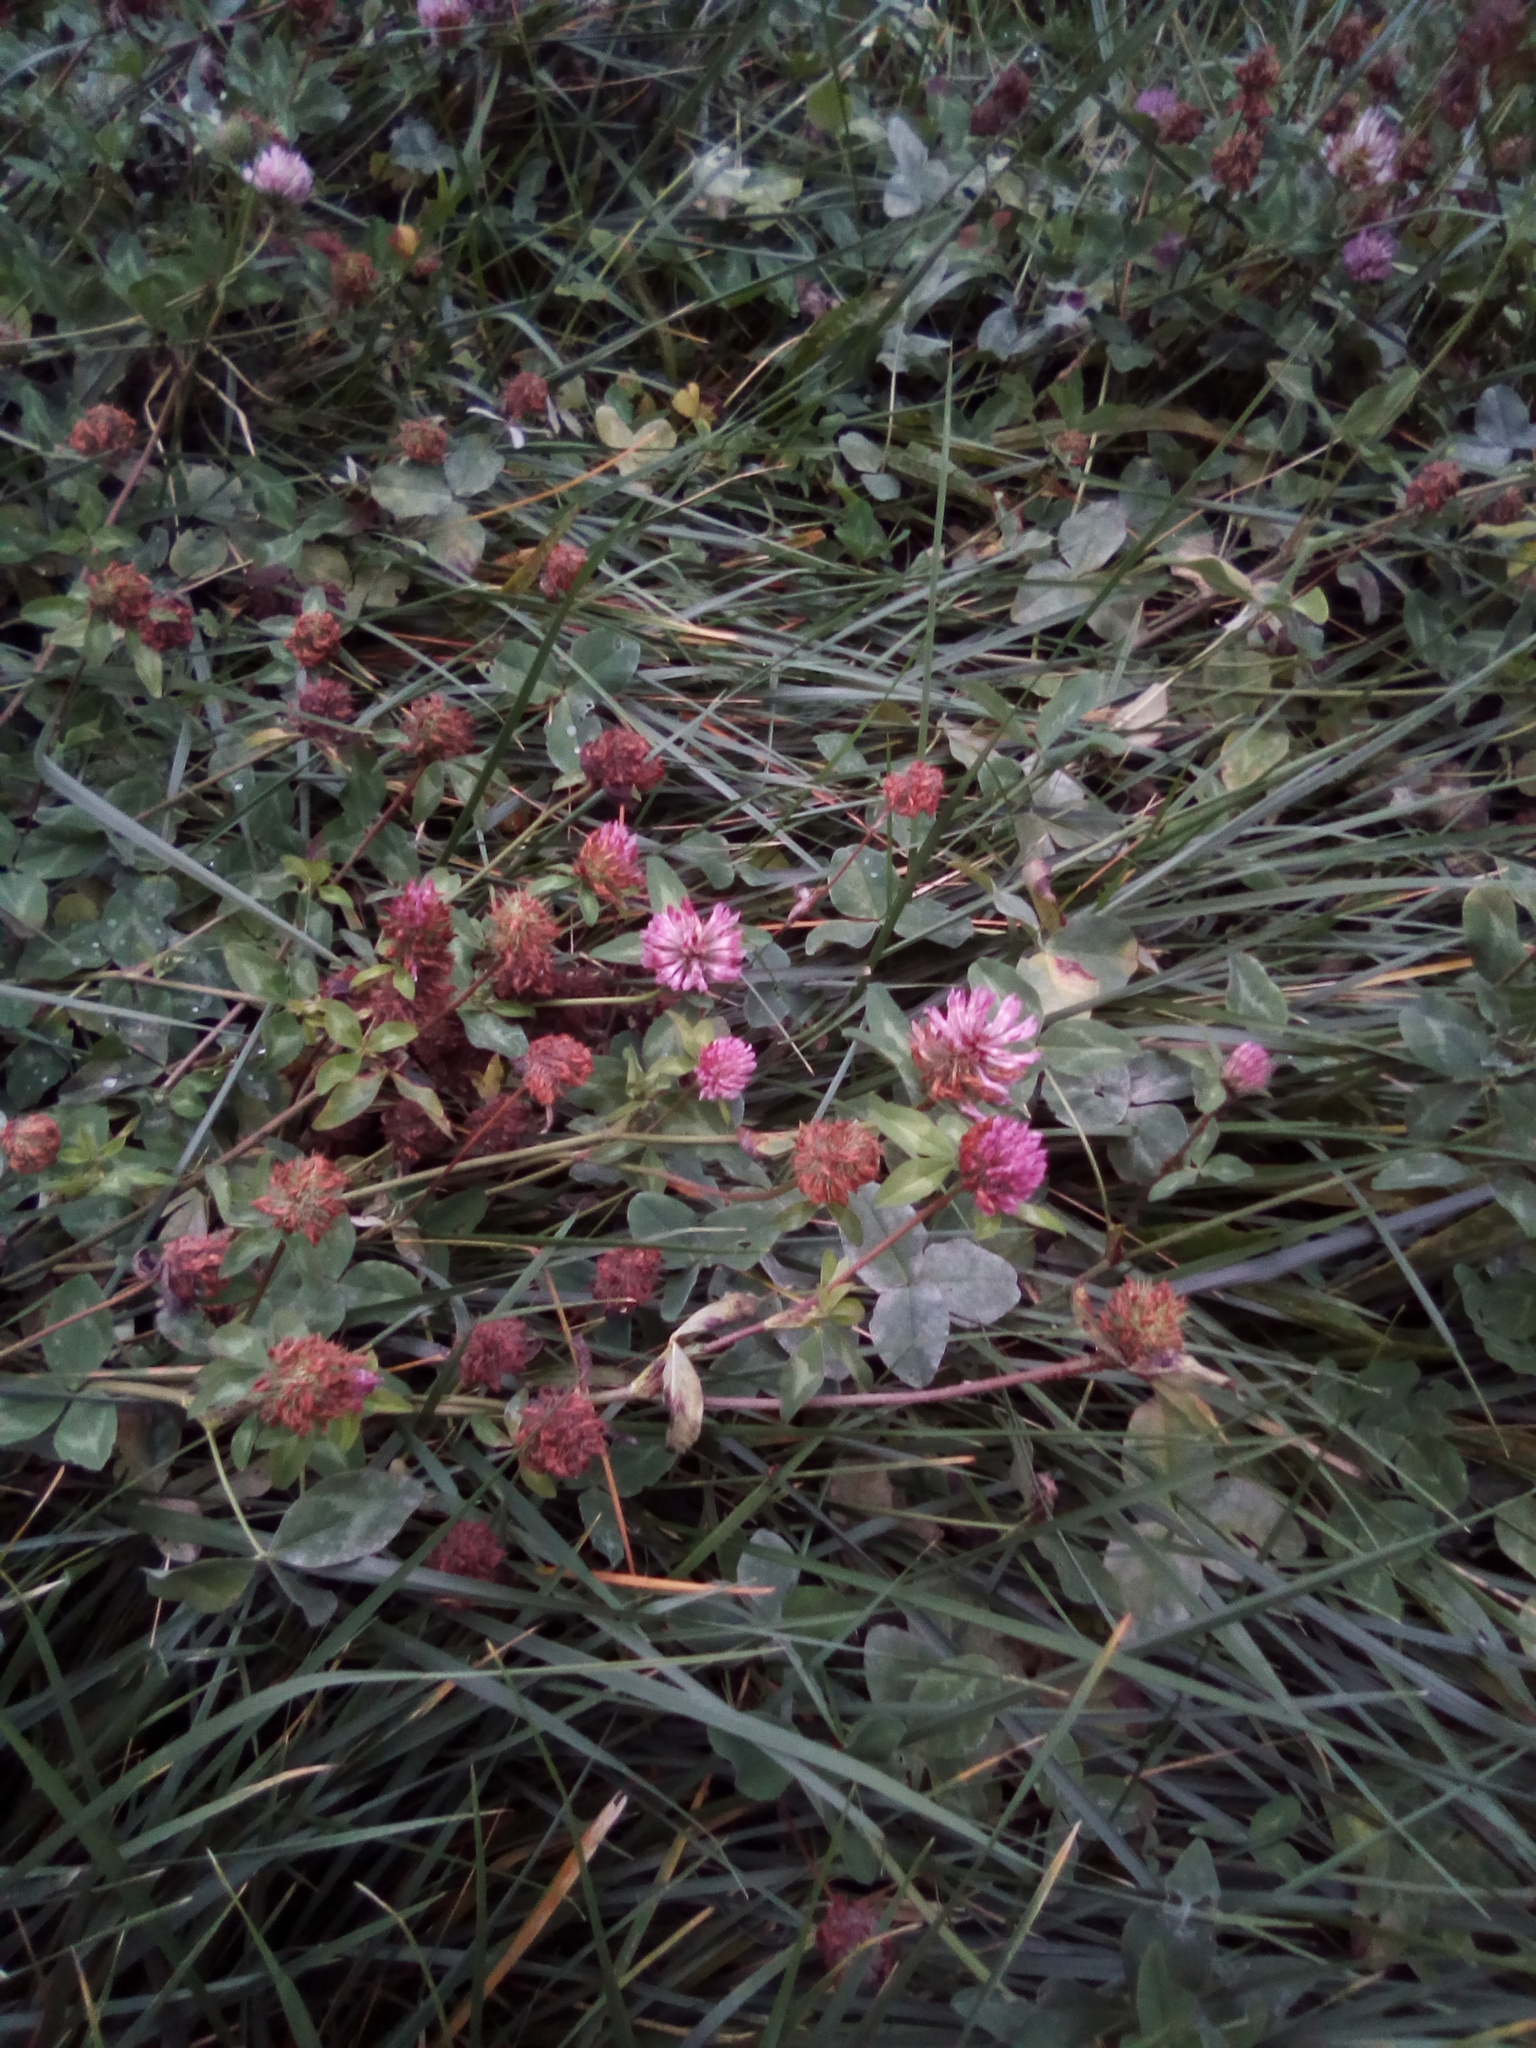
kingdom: Plantae
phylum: Tracheophyta
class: Magnoliopsida
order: Fabales
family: Fabaceae
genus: Trifolium
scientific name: Trifolium pratense
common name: Red clover
